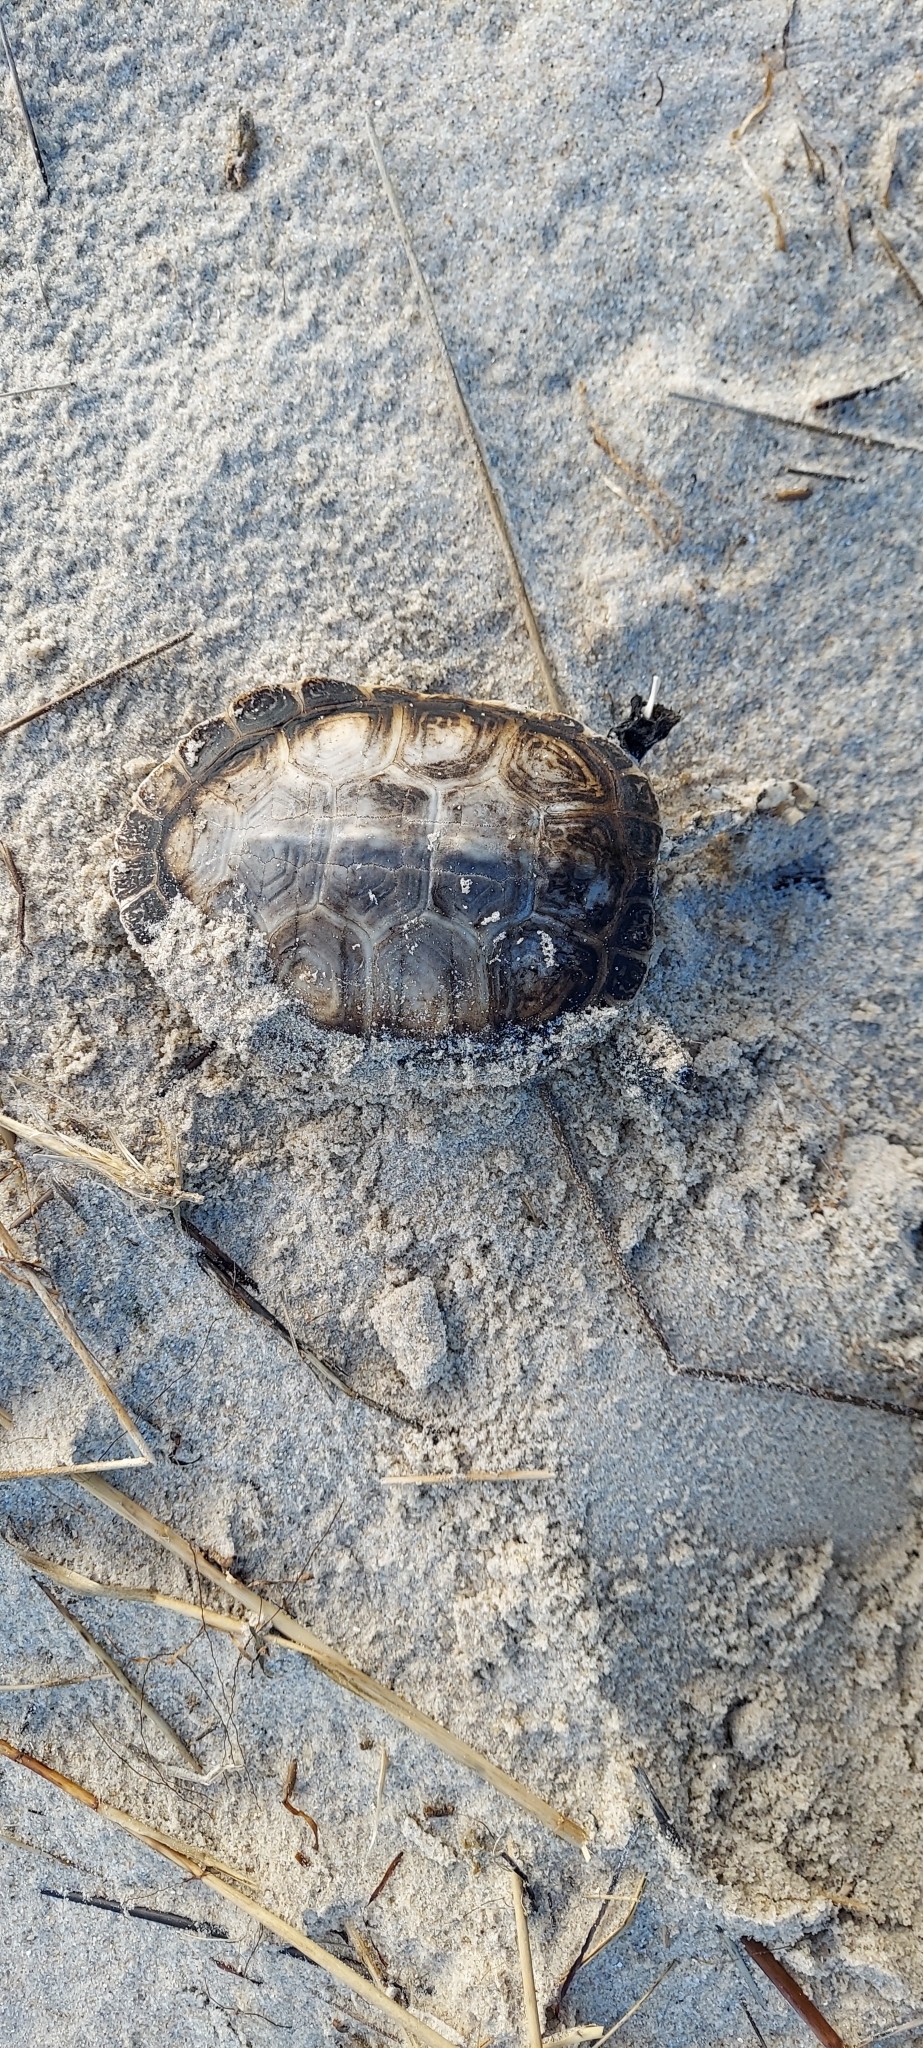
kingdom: Animalia
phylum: Chordata
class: Testudines
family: Emydidae
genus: Malaclemys
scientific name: Malaclemys terrapin
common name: Diamondback terrapin
